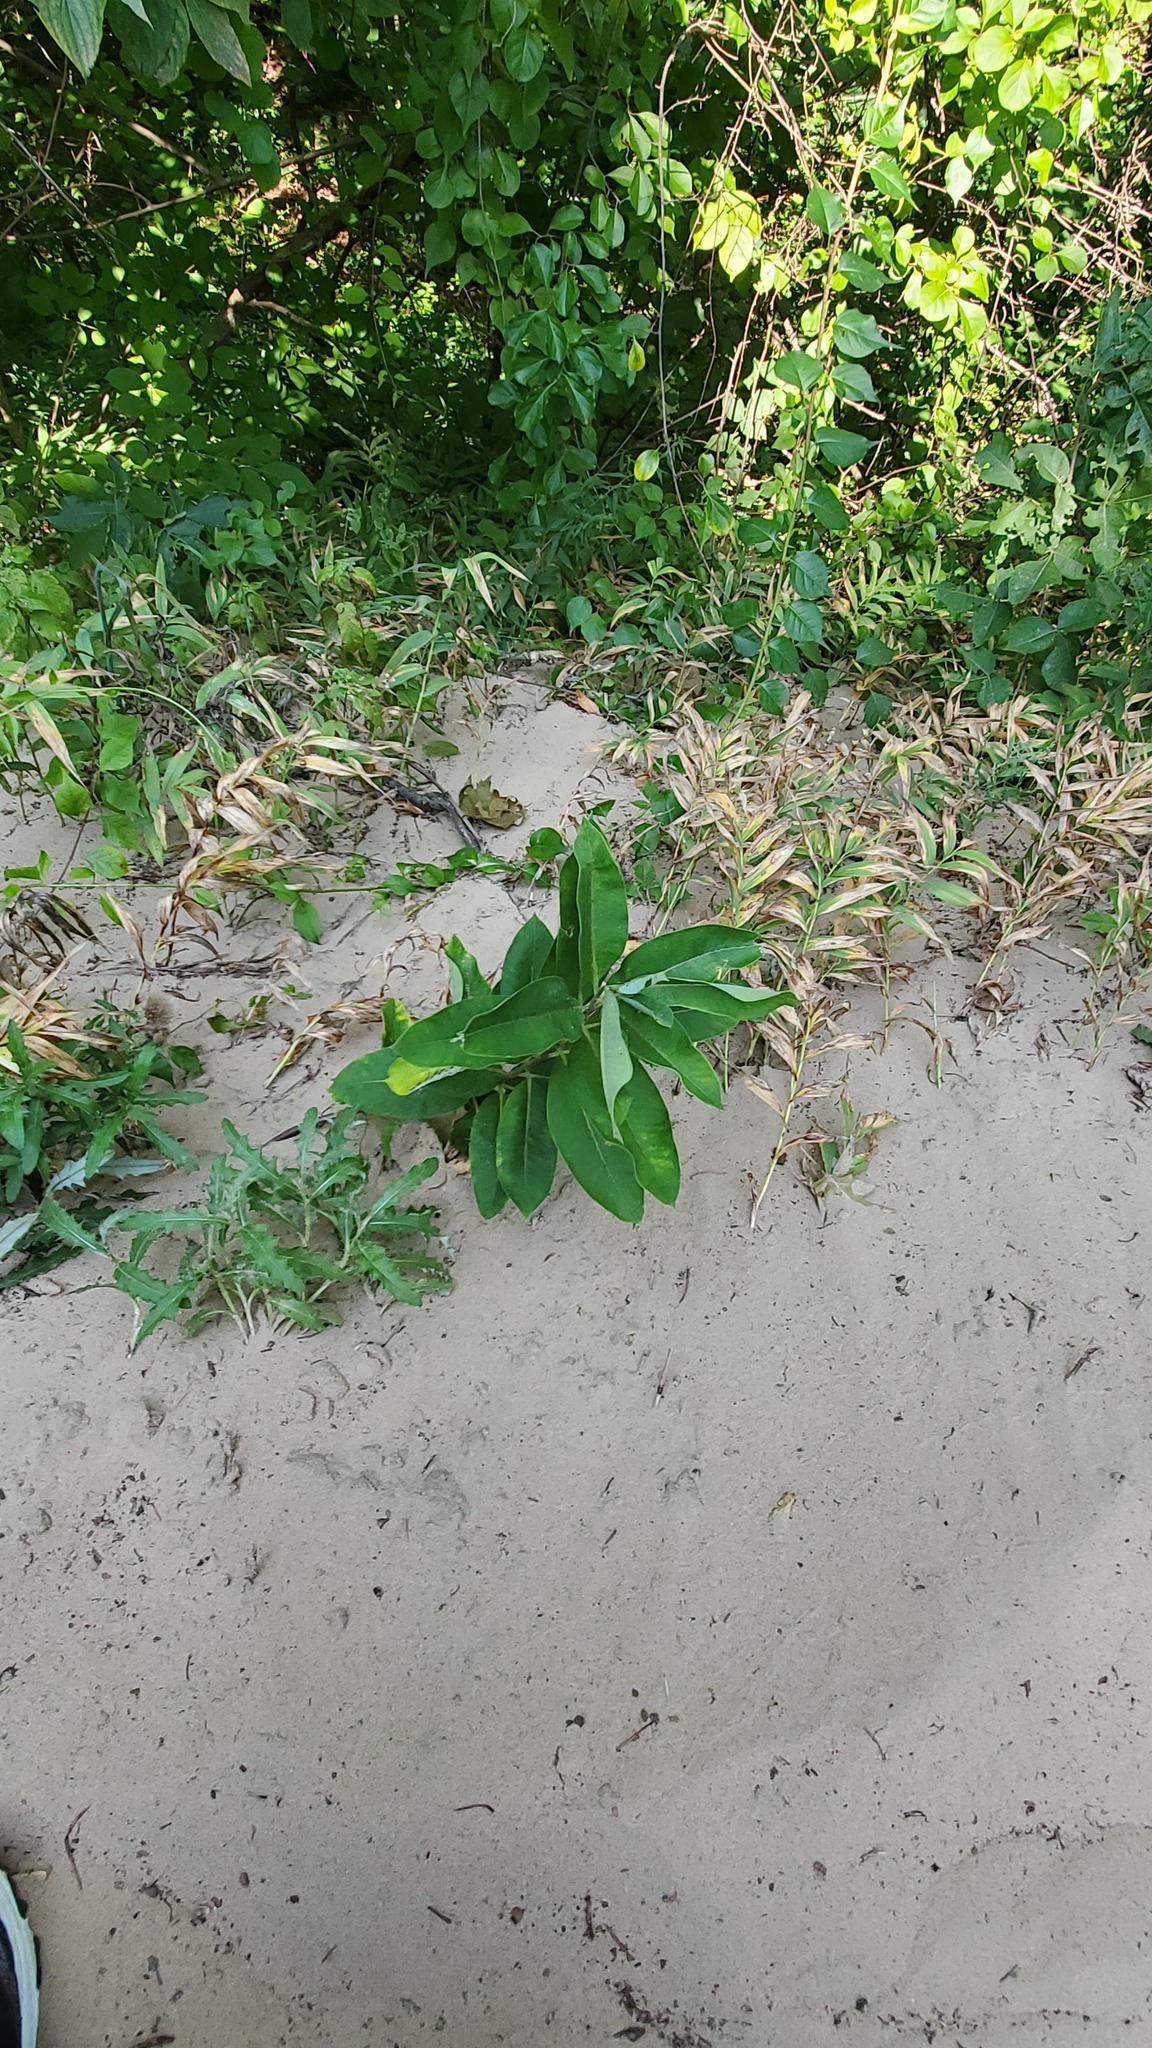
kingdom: Plantae
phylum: Tracheophyta
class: Magnoliopsida
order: Gentianales
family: Apocynaceae
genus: Asclepias
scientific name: Asclepias syriaca
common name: Common milkweed
